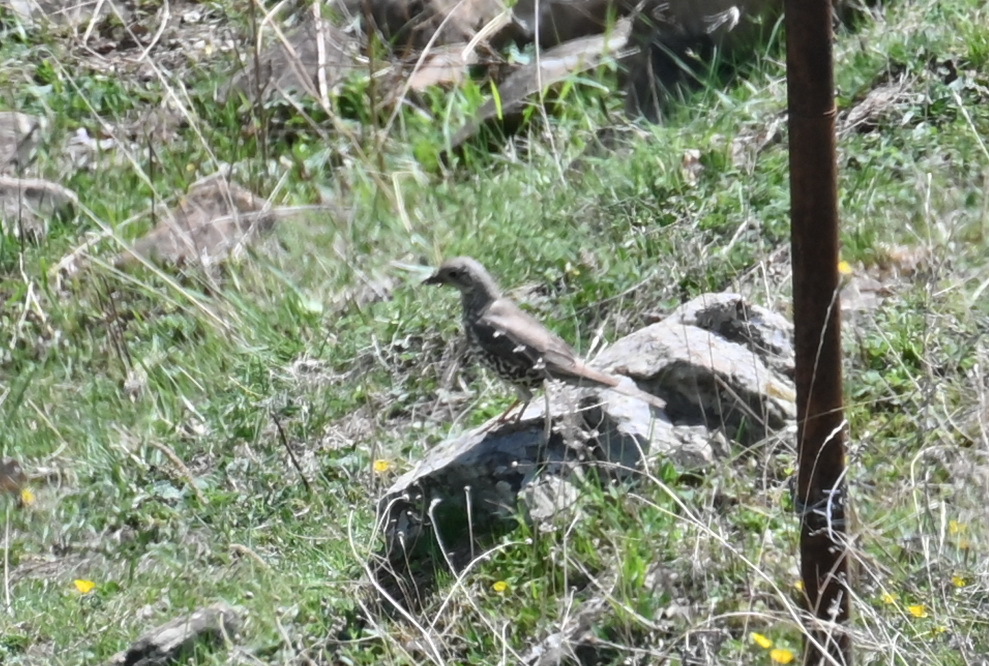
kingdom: Animalia
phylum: Chordata
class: Aves
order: Passeriformes
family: Turdidae
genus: Turdus
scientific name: Turdus viscivorus
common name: Mistle thrush
